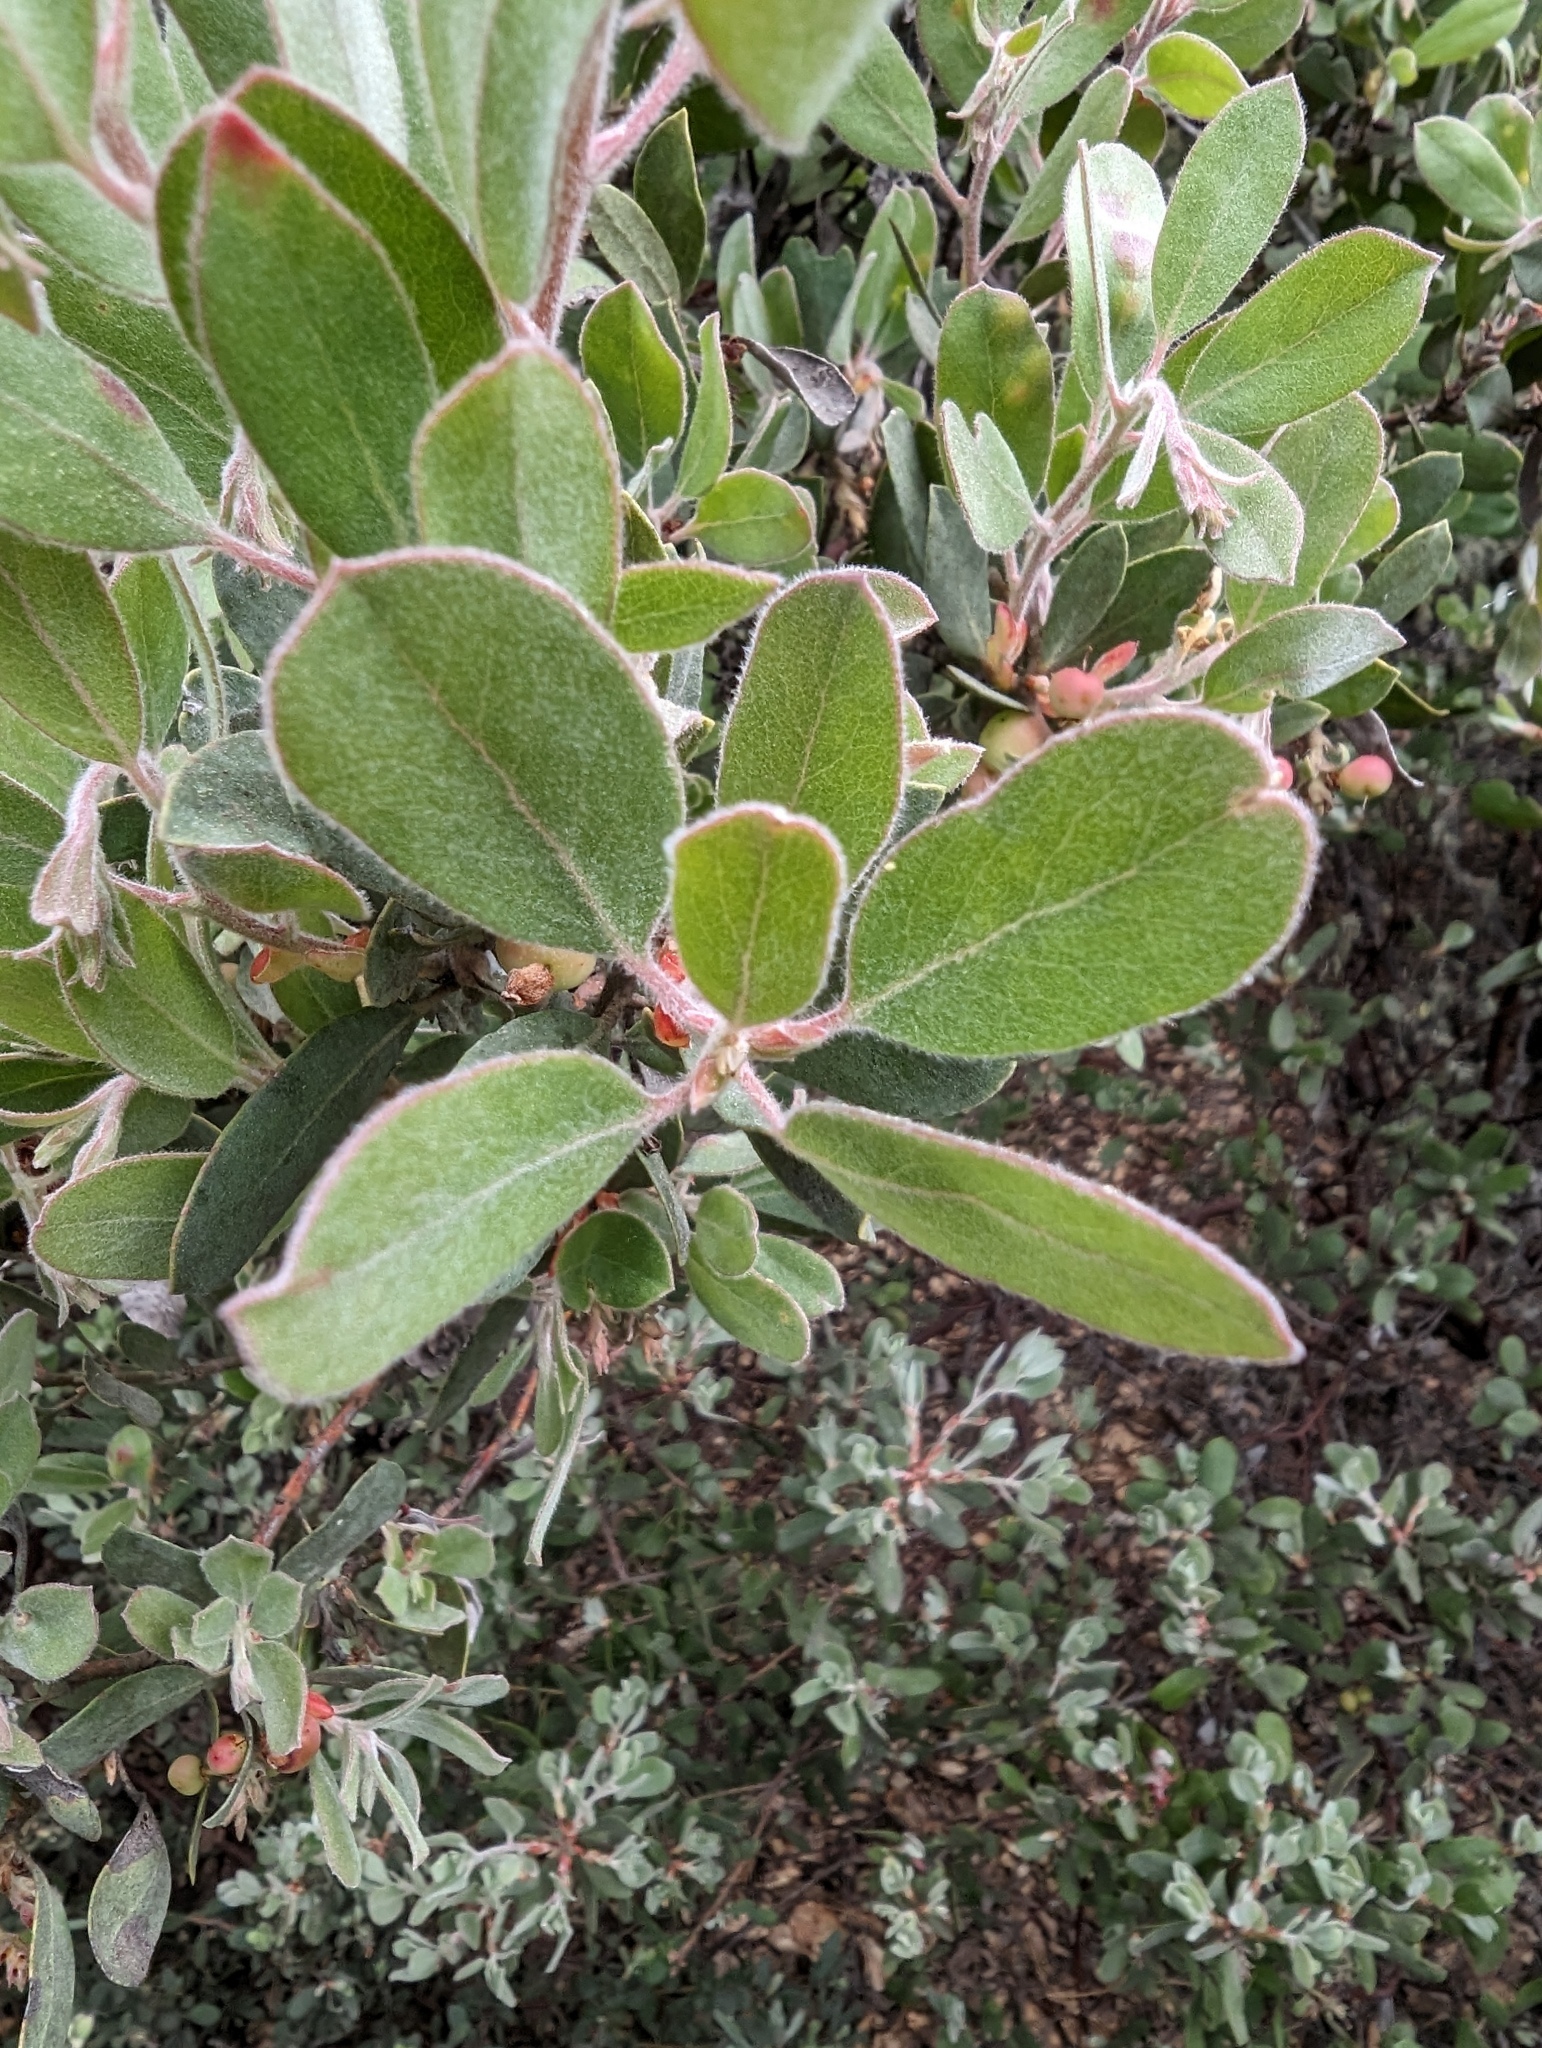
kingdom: Plantae
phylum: Tracheophyta
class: Magnoliopsida
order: Ericales
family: Ericaceae
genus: Arctostaphylos
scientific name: Arctostaphylos silvicola
